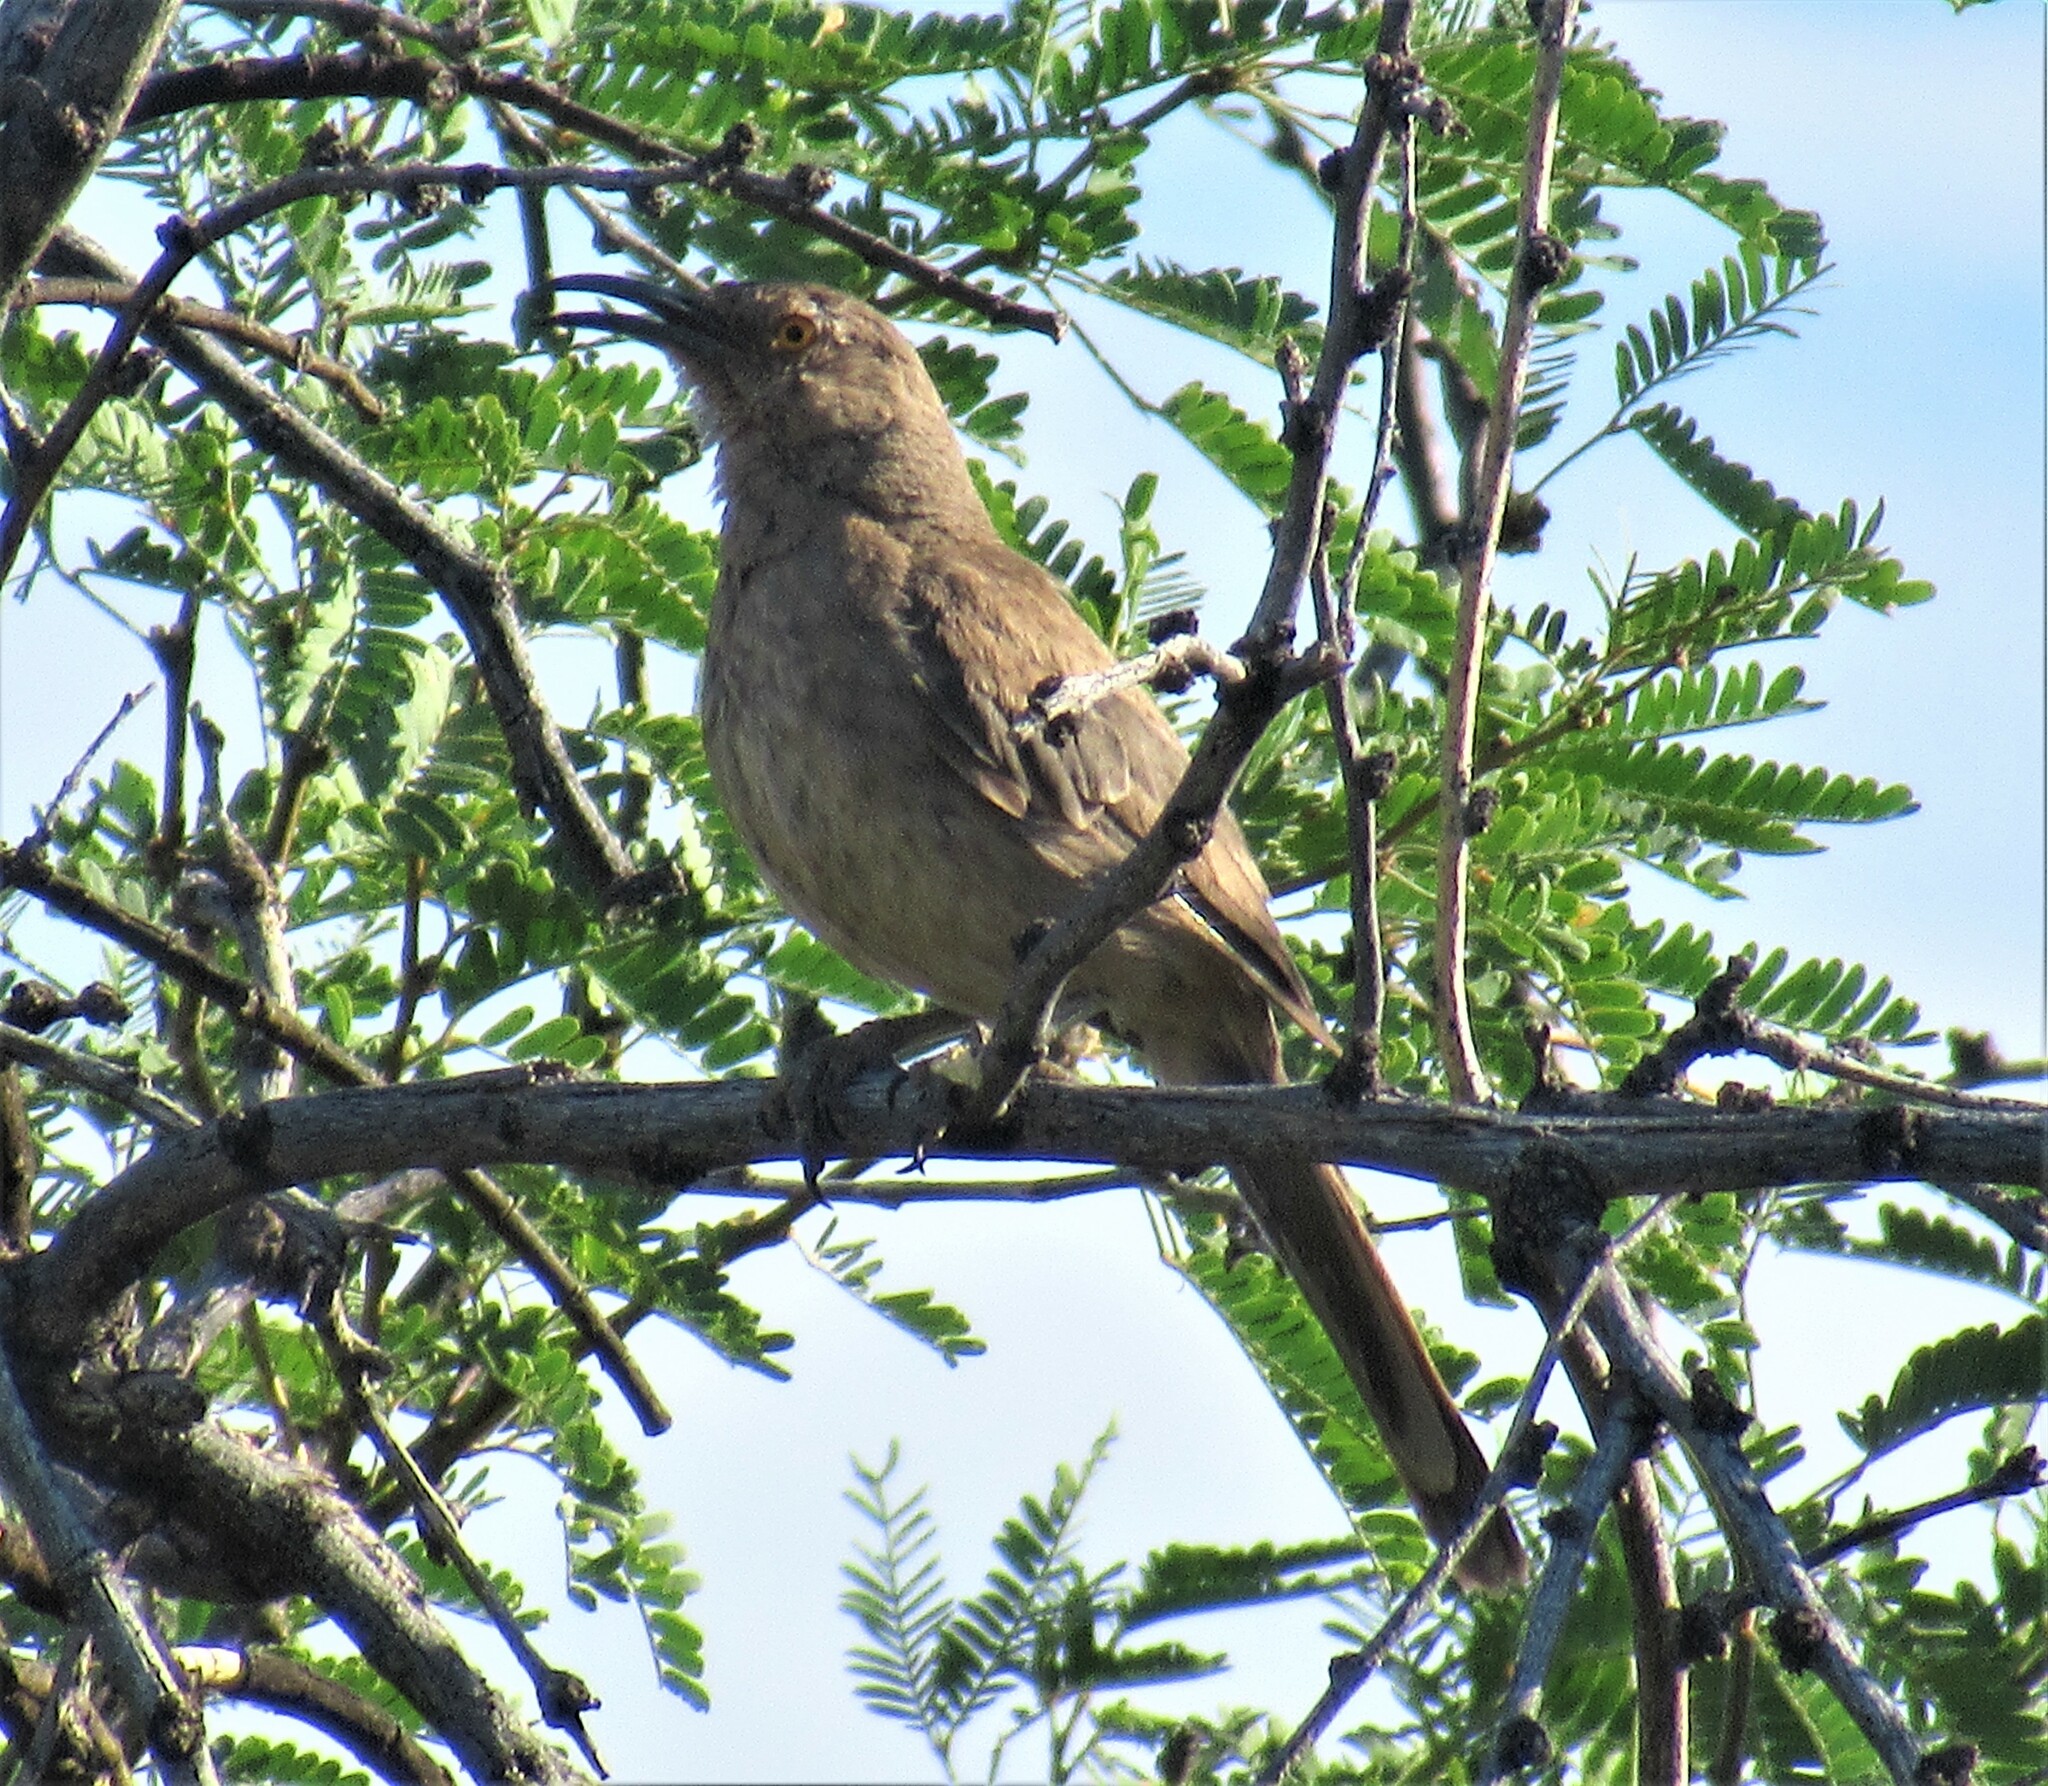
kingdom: Animalia
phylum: Chordata
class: Aves
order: Passeriformes
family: Mimidae
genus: Toxostoma
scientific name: Toxostoma curvirostre
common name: Curve-billed thrasher
